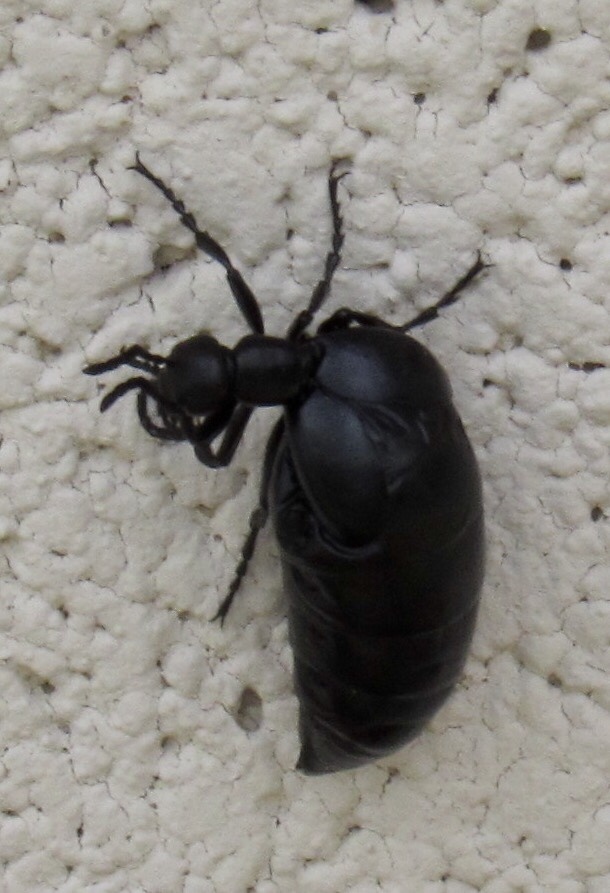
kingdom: Animalia
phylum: Arthropoda
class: Insecta
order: Coleoptera
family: Meloidae
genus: Meloe
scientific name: Meloe laevis
